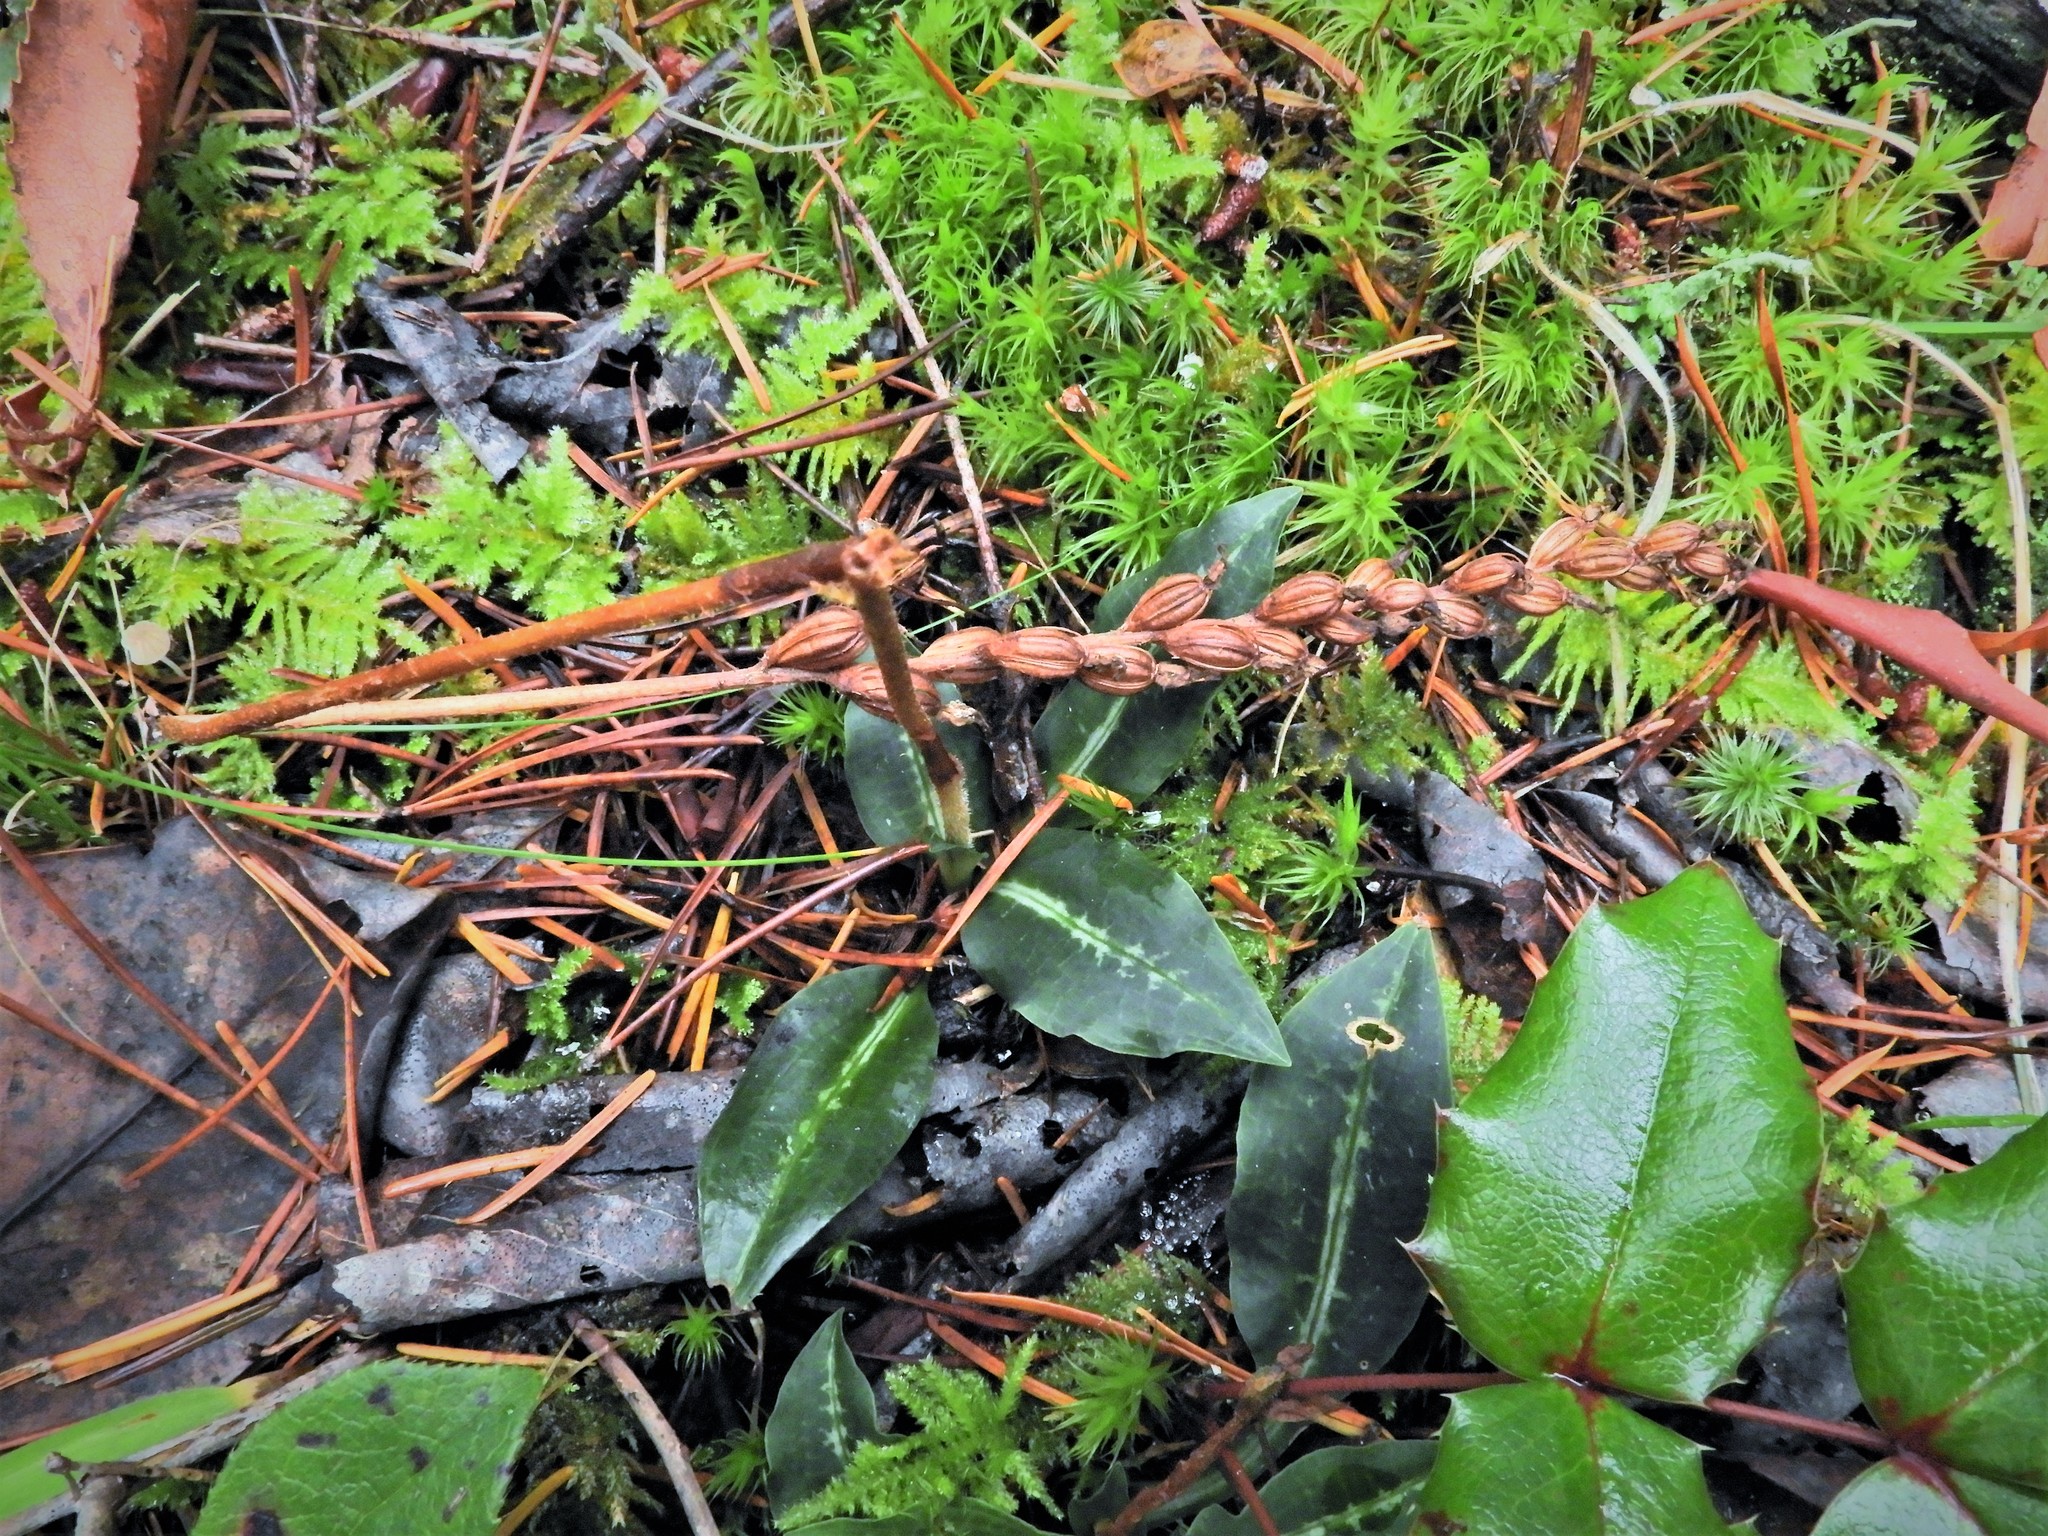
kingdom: Plantae
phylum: Tracheophyta
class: Liliopsida
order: Asparagales
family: Orchidaceae
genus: Goodyera
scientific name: Goodyera oblongifolia
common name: Giant rattlesnake-plantain
